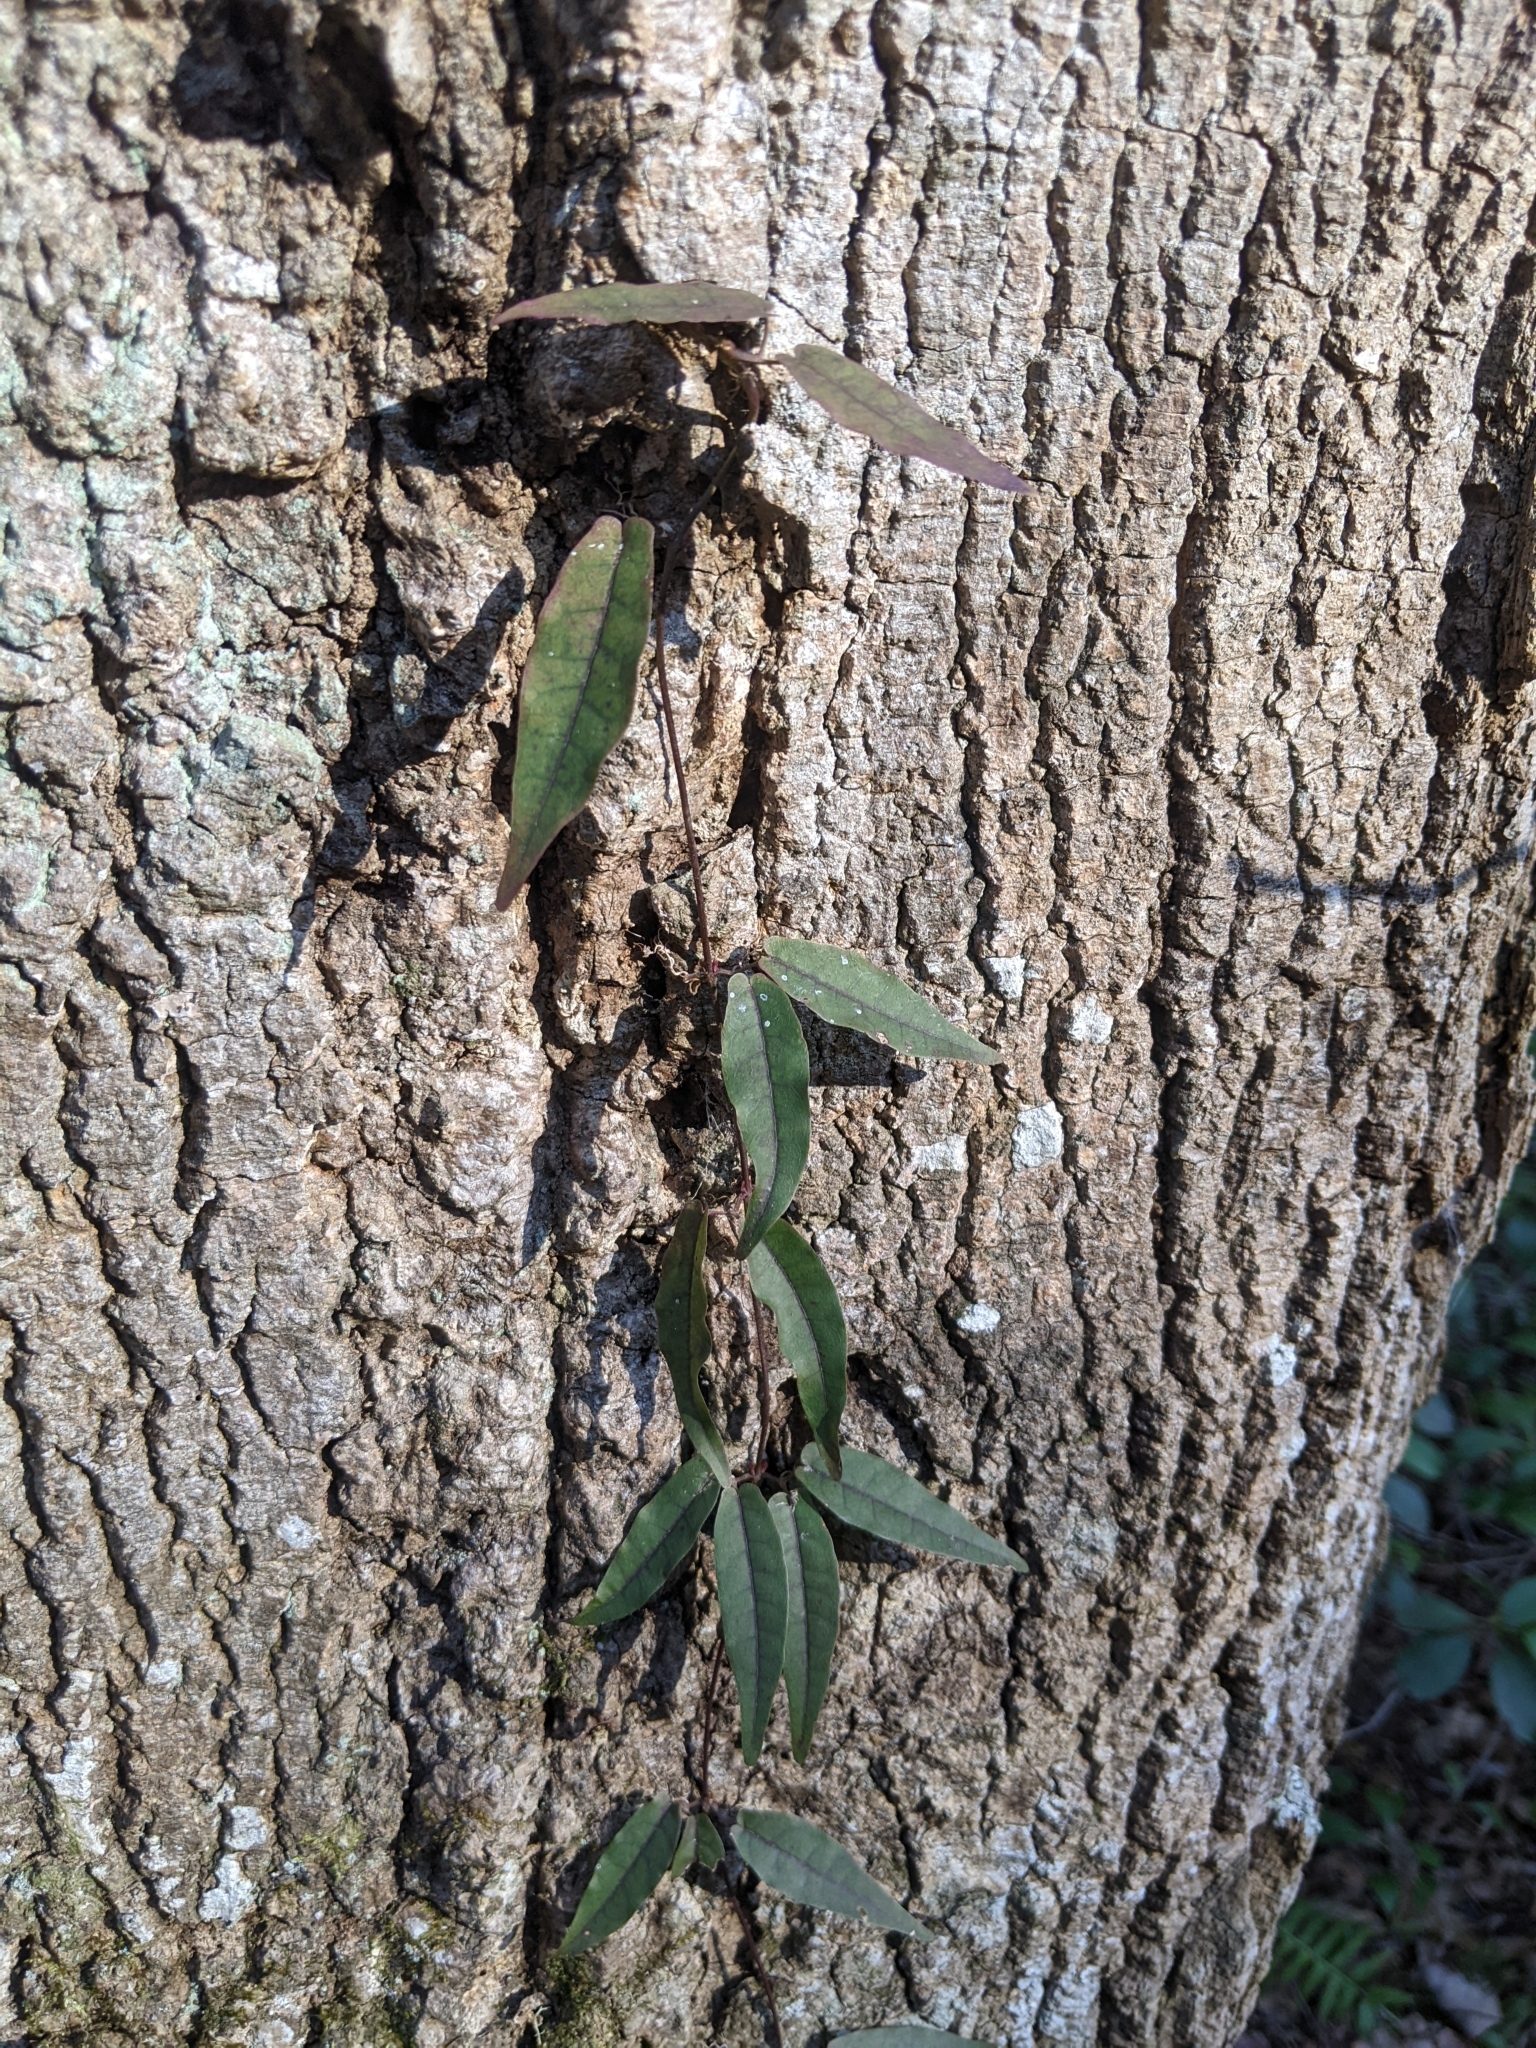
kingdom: Plantae
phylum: Tracheophyta
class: Magnoliopsida
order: Lamiales
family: Bignoniaceae
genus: Bignonia
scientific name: Bignonia capreolata
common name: Crossvine
